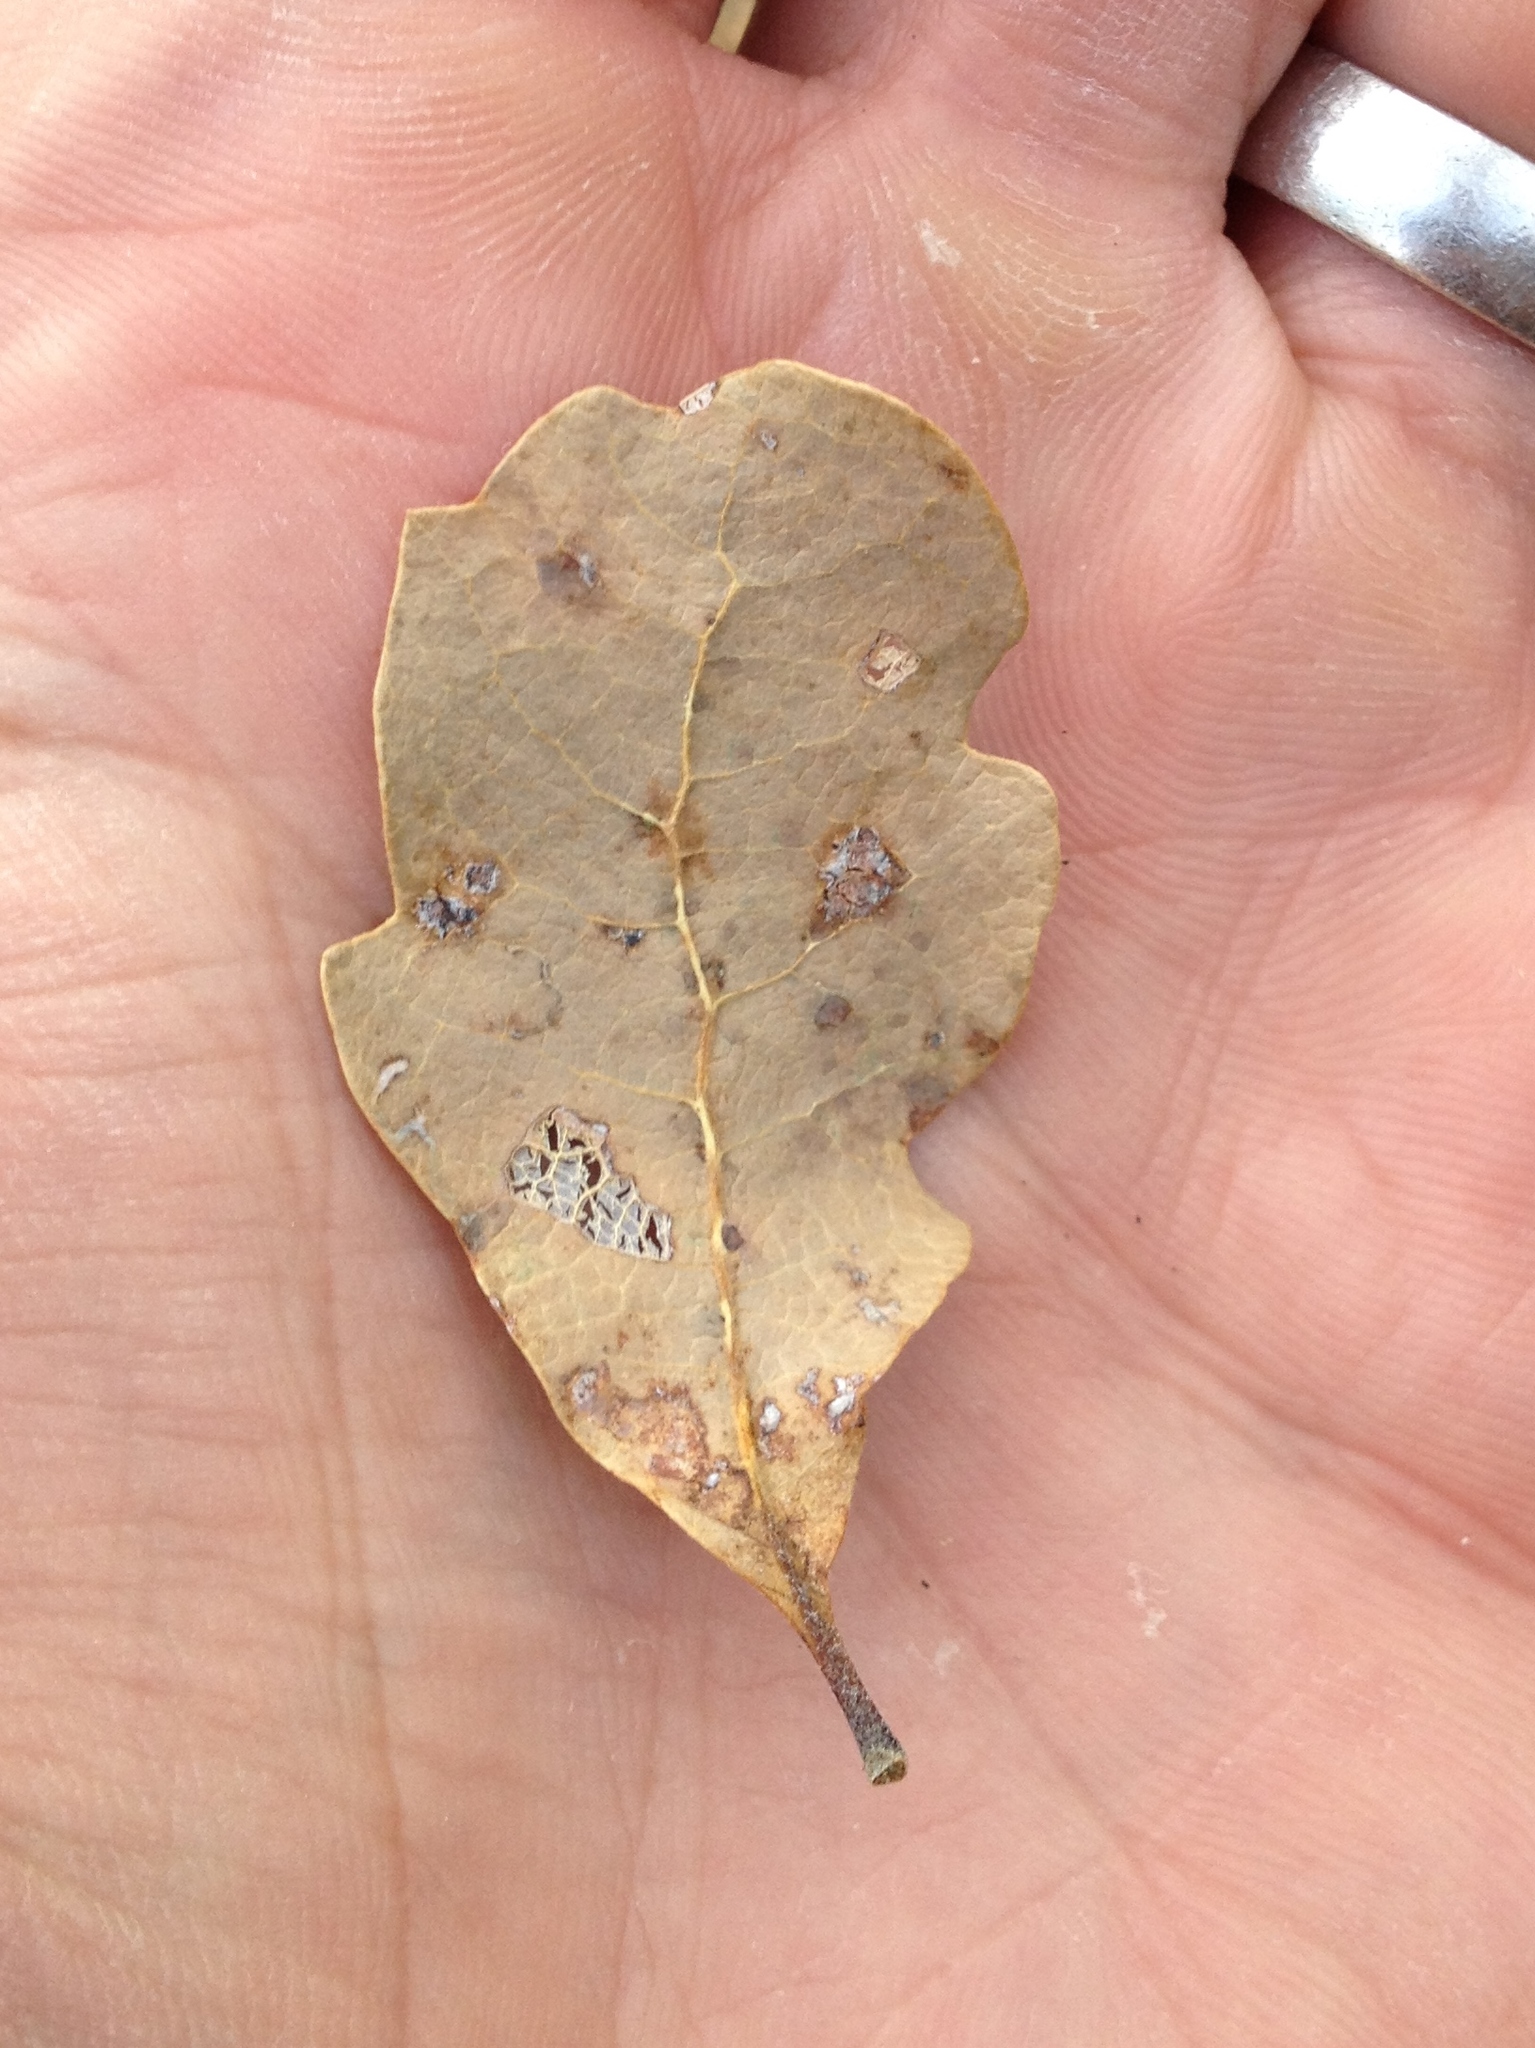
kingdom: Plantae
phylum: Tracheophyta
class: Magnoliopsida
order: Fagales
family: Fagaceae
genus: Quercus
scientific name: Quercus douglasii
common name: Blue oak
